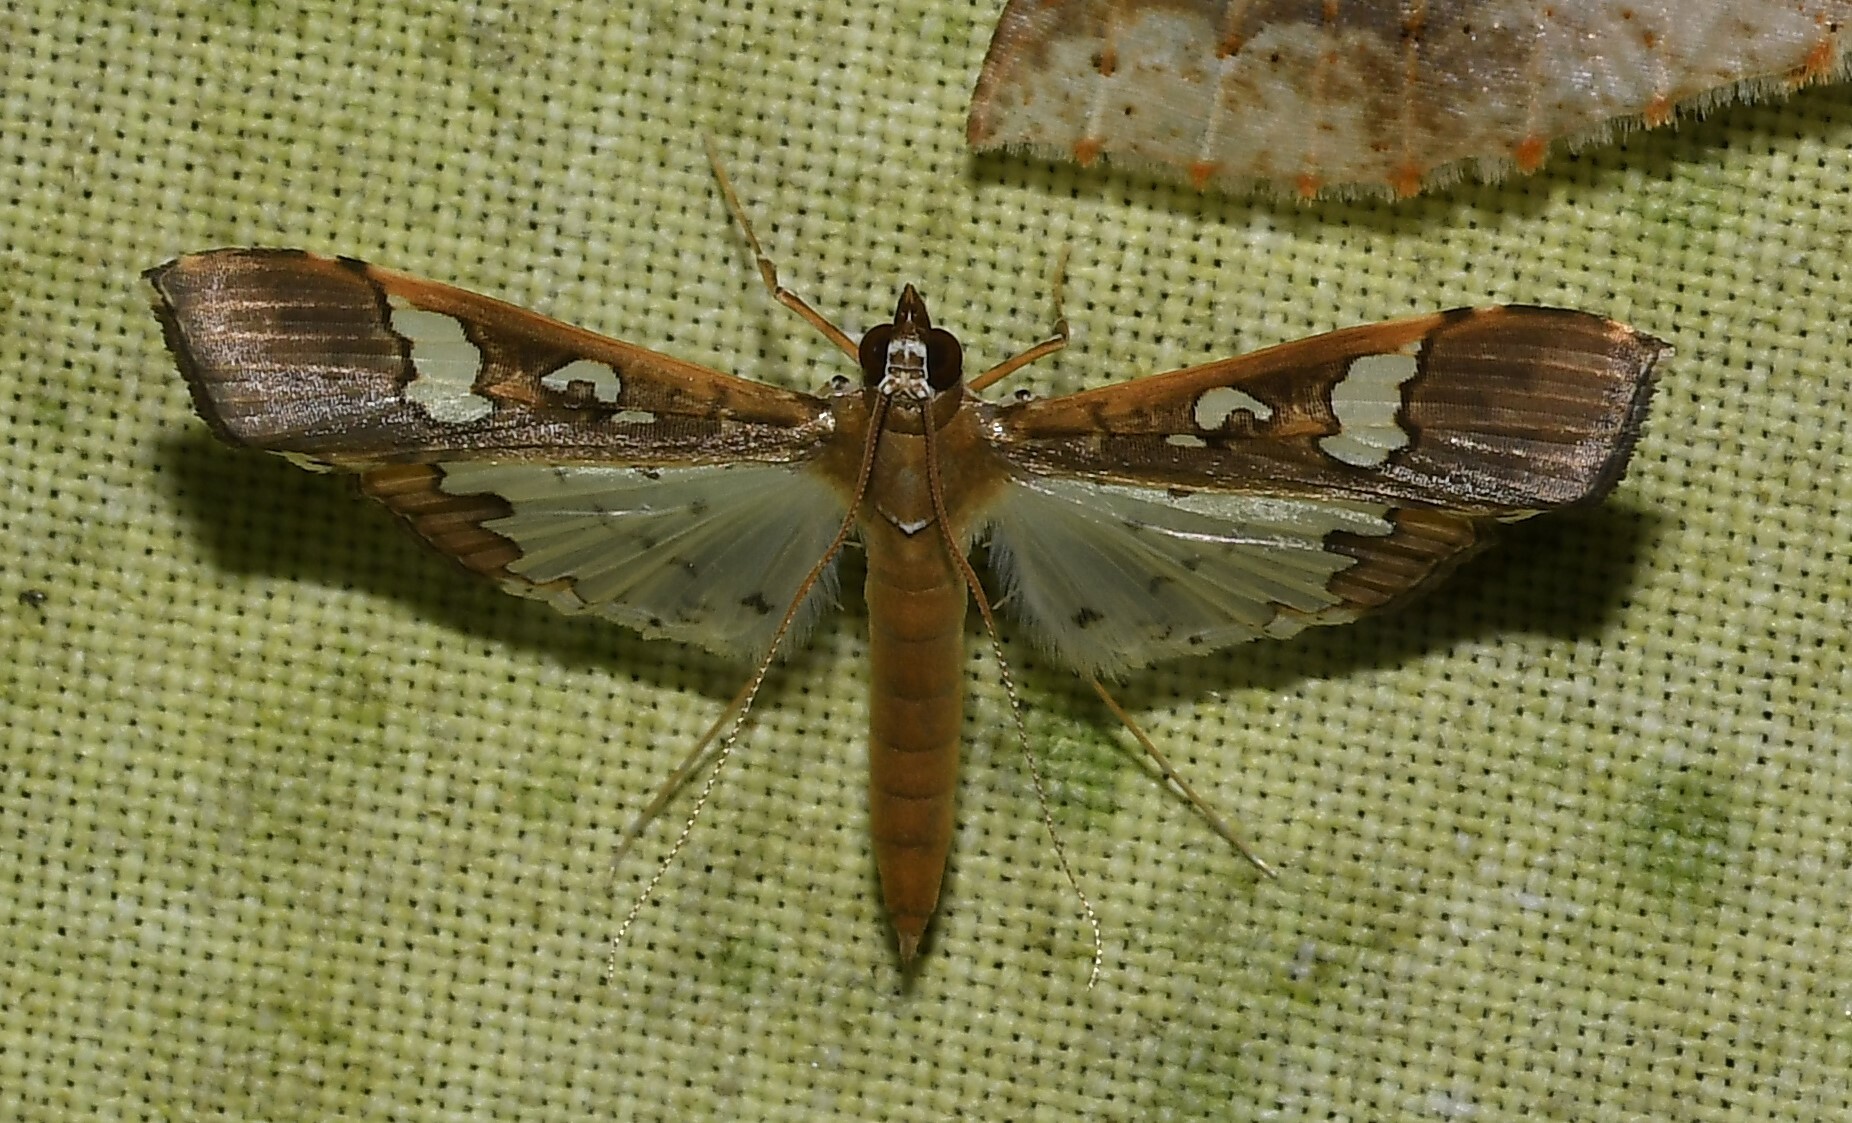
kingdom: Animalia
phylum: Arthropoda
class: Insecta
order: Lepidoptera
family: Crambidae
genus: Maruca
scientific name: Maruca vitrata
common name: Maruca pod borer
